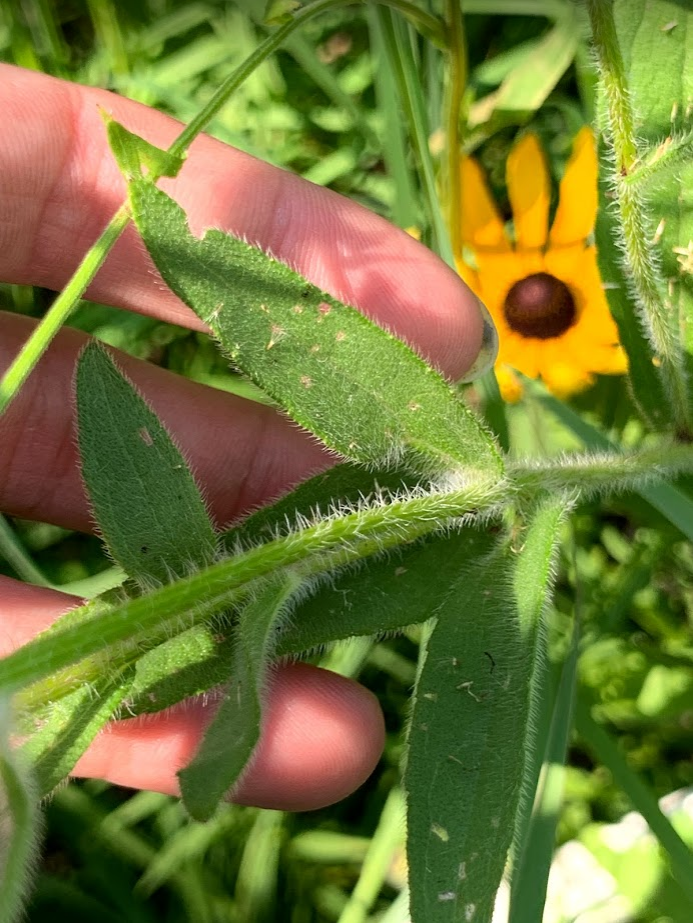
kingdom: Plantae
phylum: Tracheophyta
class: Magnoliopsida
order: Asterales
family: Asteraceae
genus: Rudbeckia
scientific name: Rudbeckia hirta
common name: Black-eyed-susan
